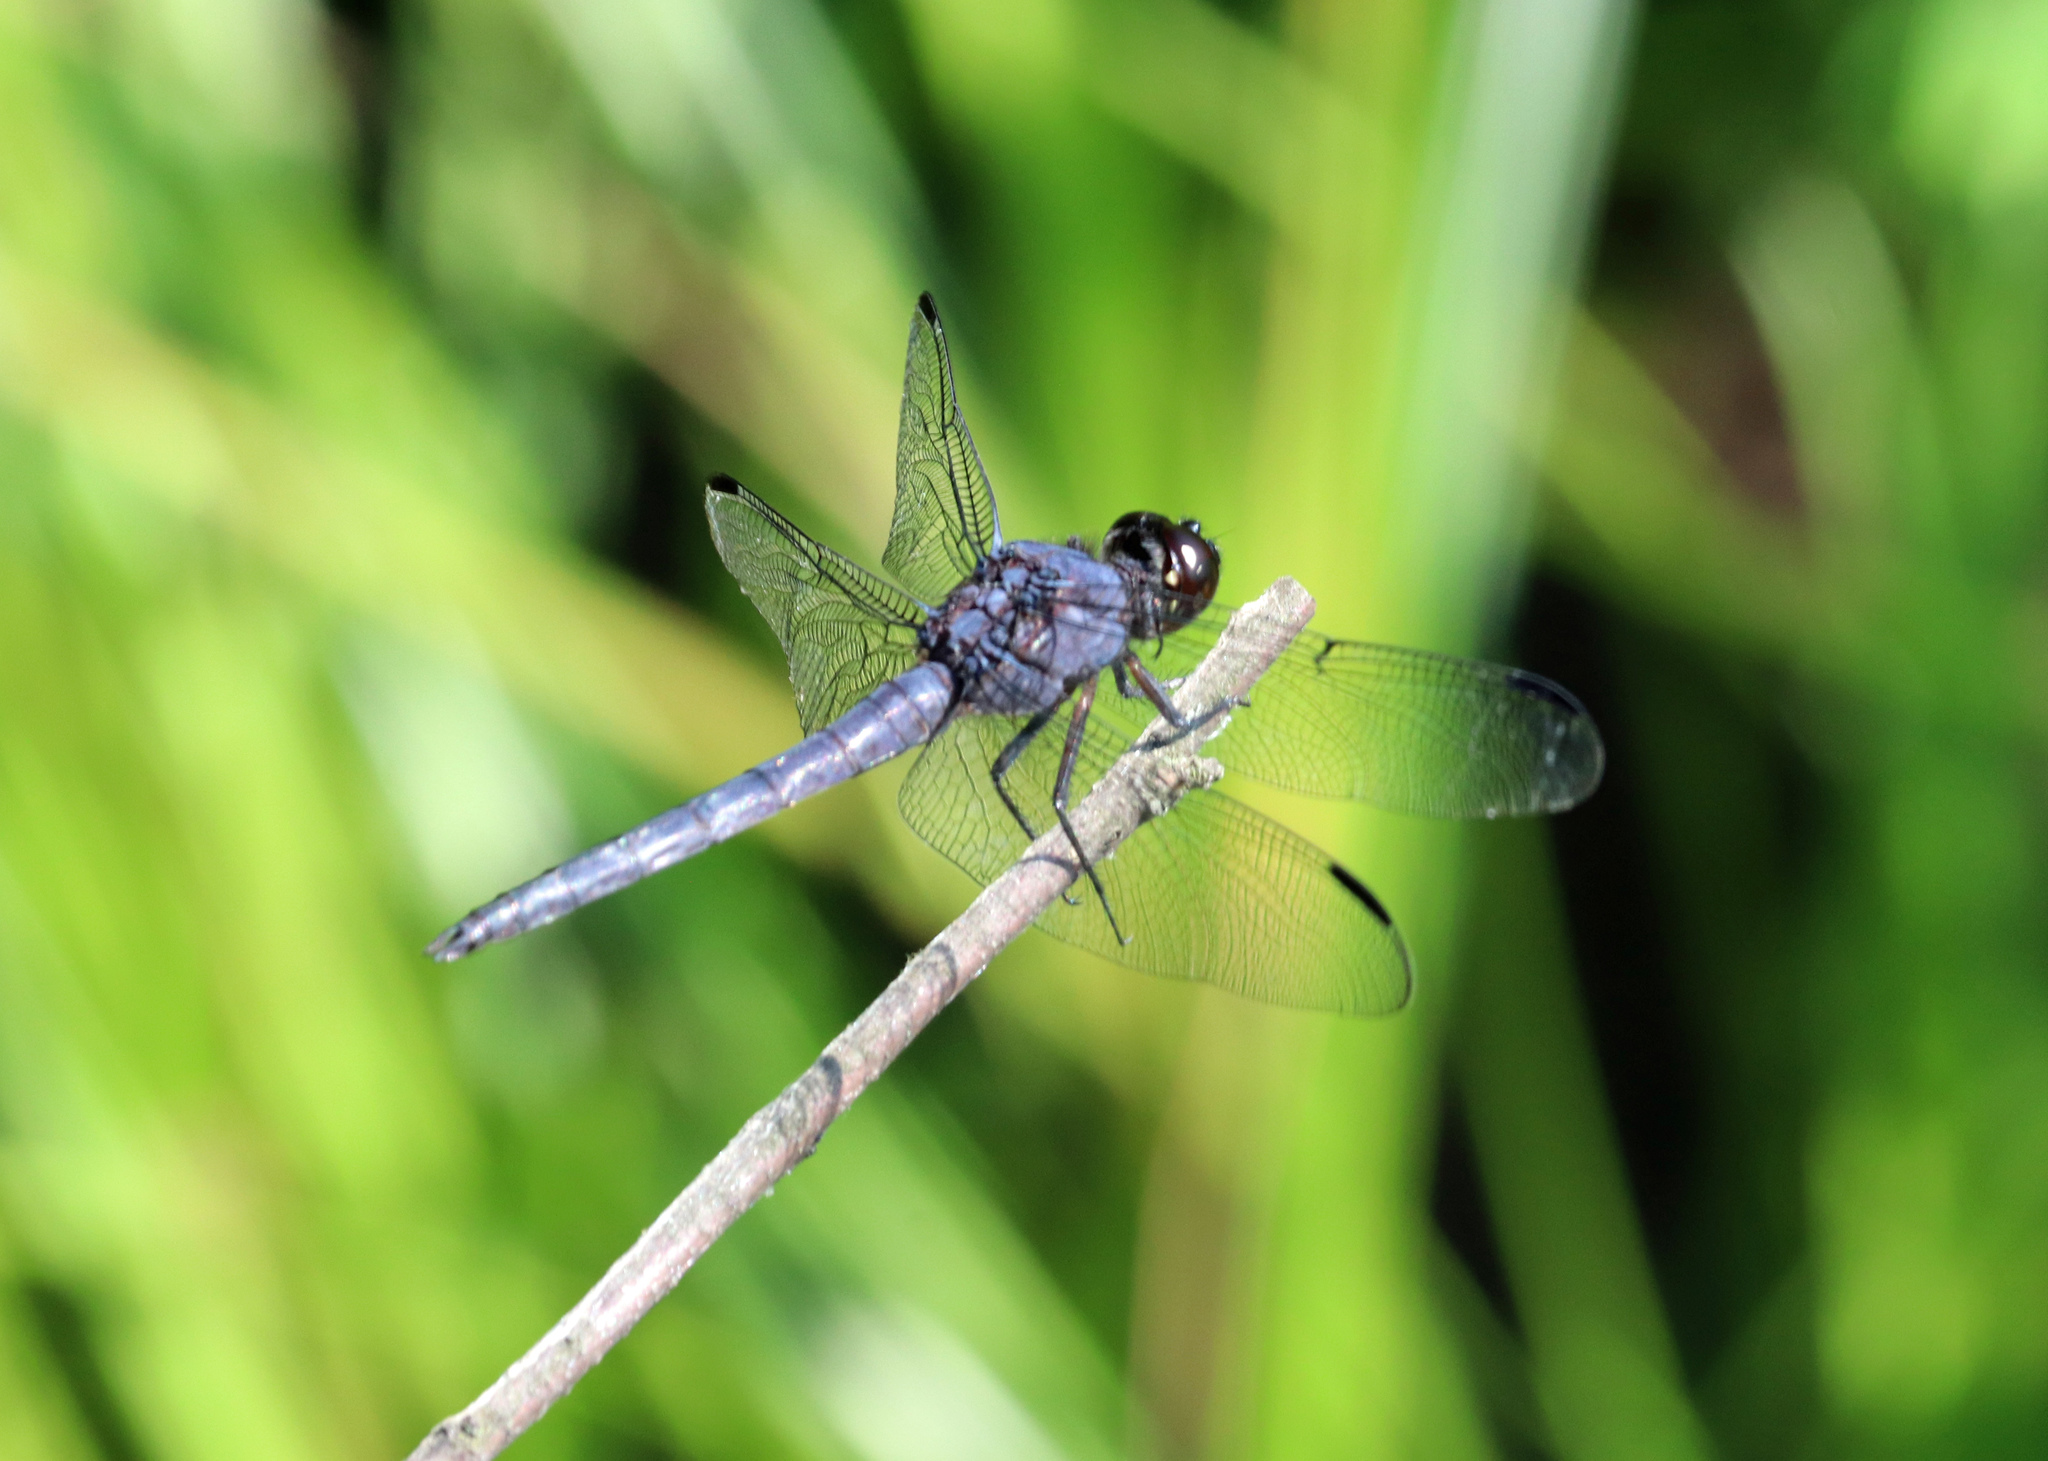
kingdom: Animalia
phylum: Arthropoda
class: Insecta
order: Odonata
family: Libellulidae
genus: Libellula
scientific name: Libellula incesta
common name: Slaty skimmer
